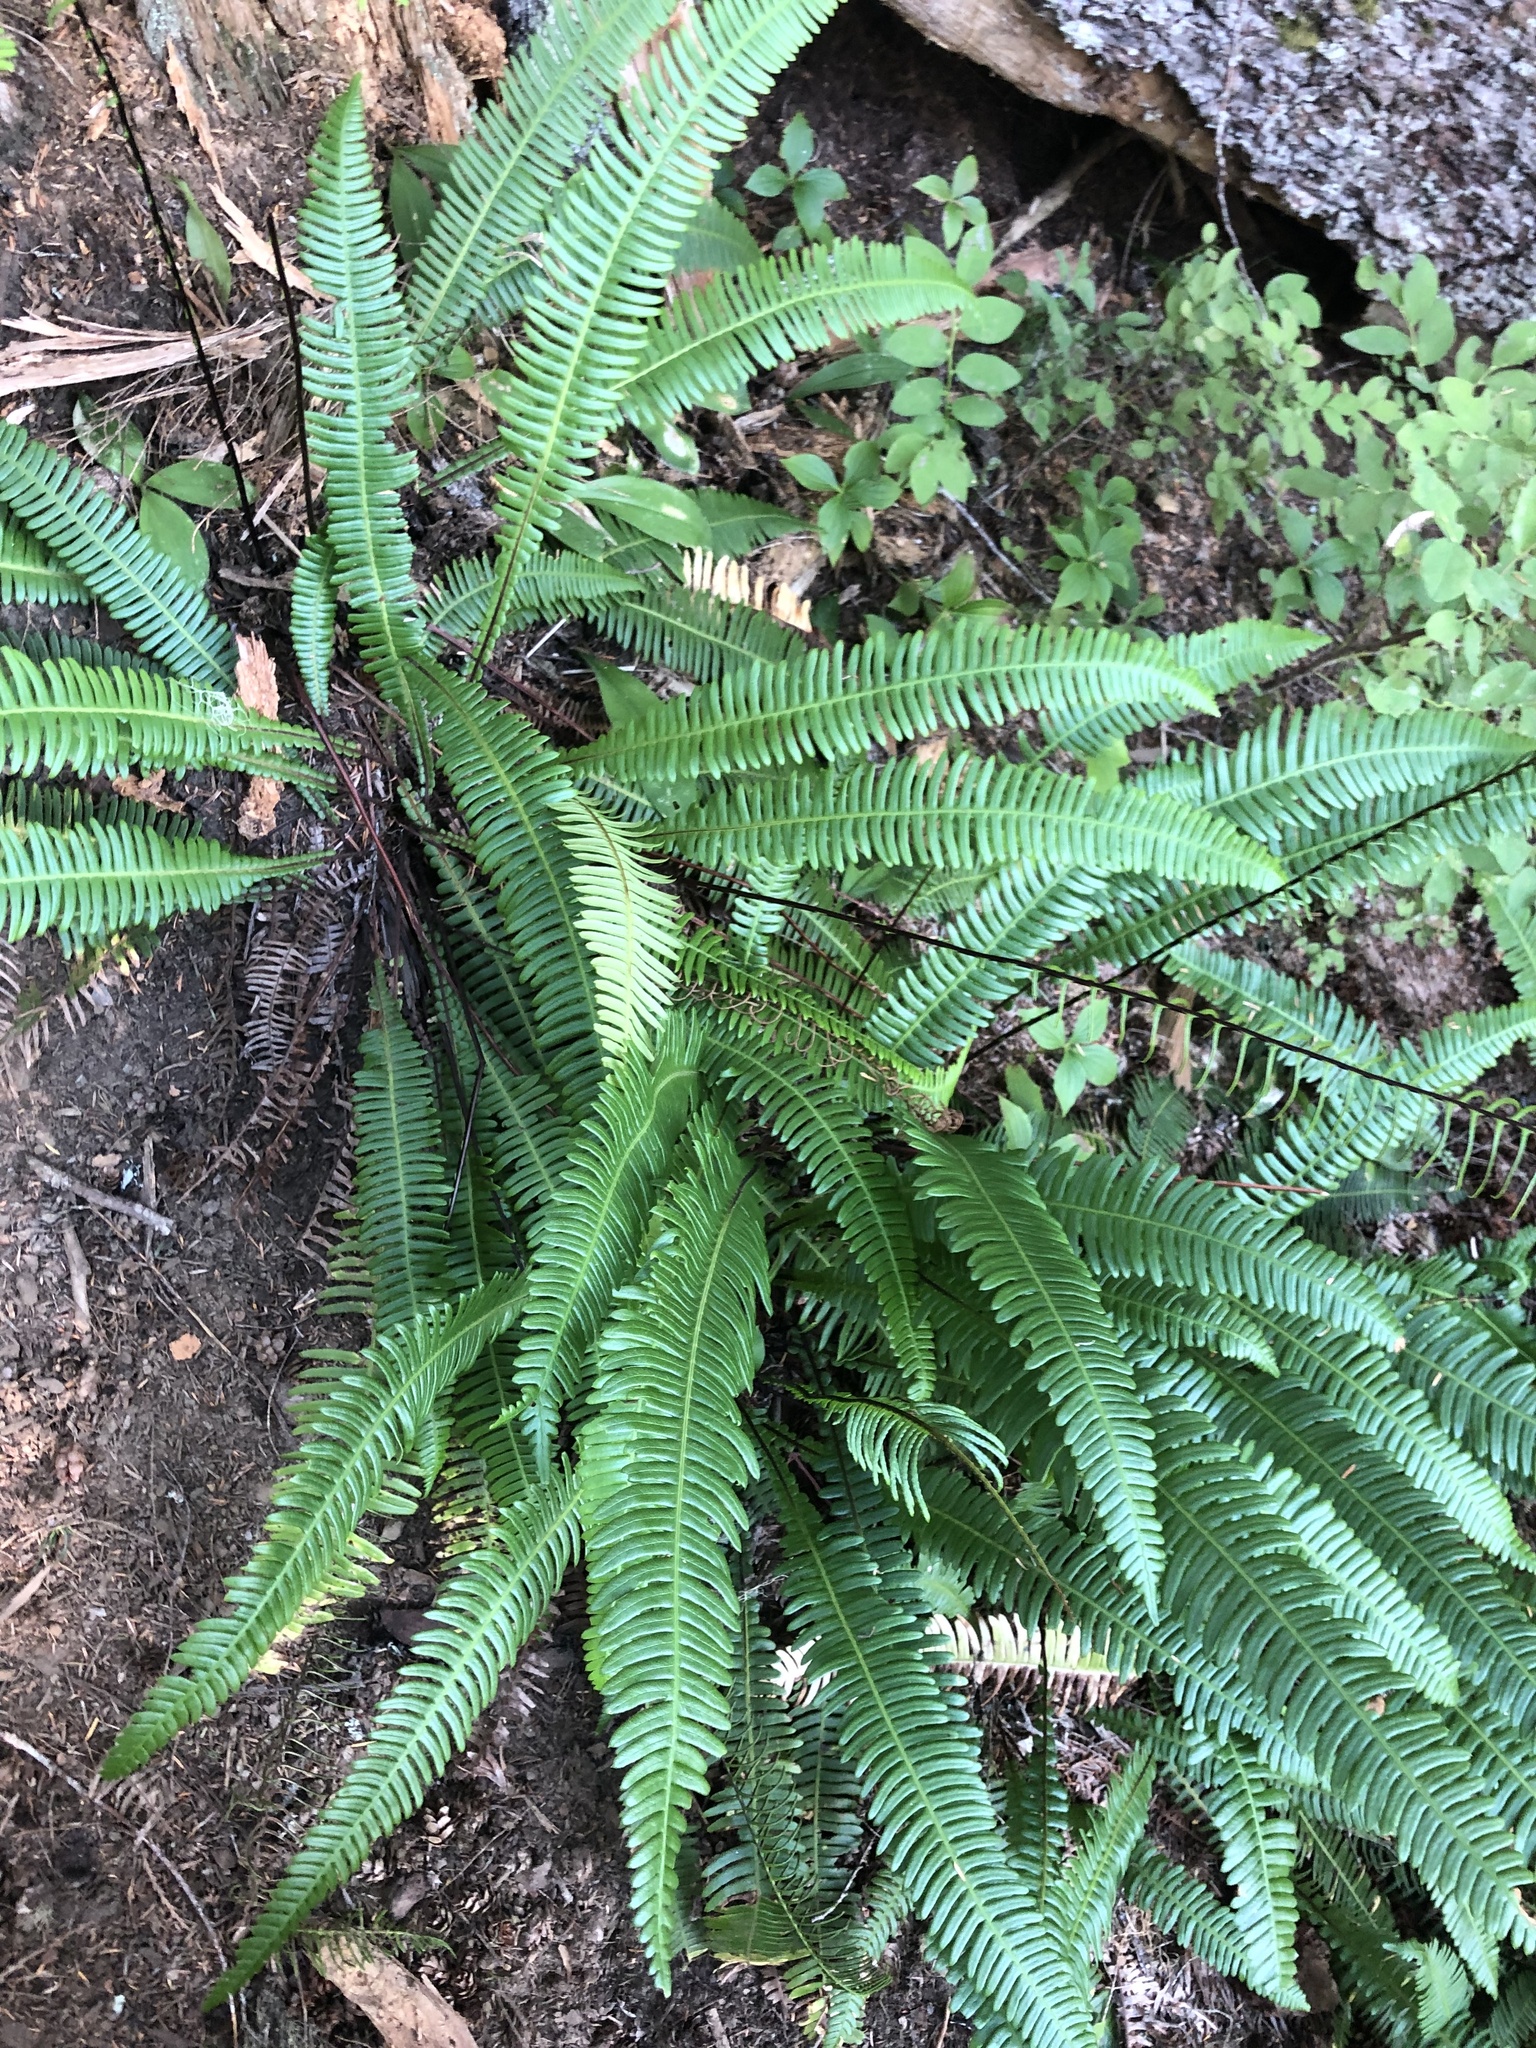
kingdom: Plantae
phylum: Tracheophyta
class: Polypodiopsida
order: Polypodiales
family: Blechnaceae
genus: Struthiopteris
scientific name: Struthiopteris spicant
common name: Deer fern
